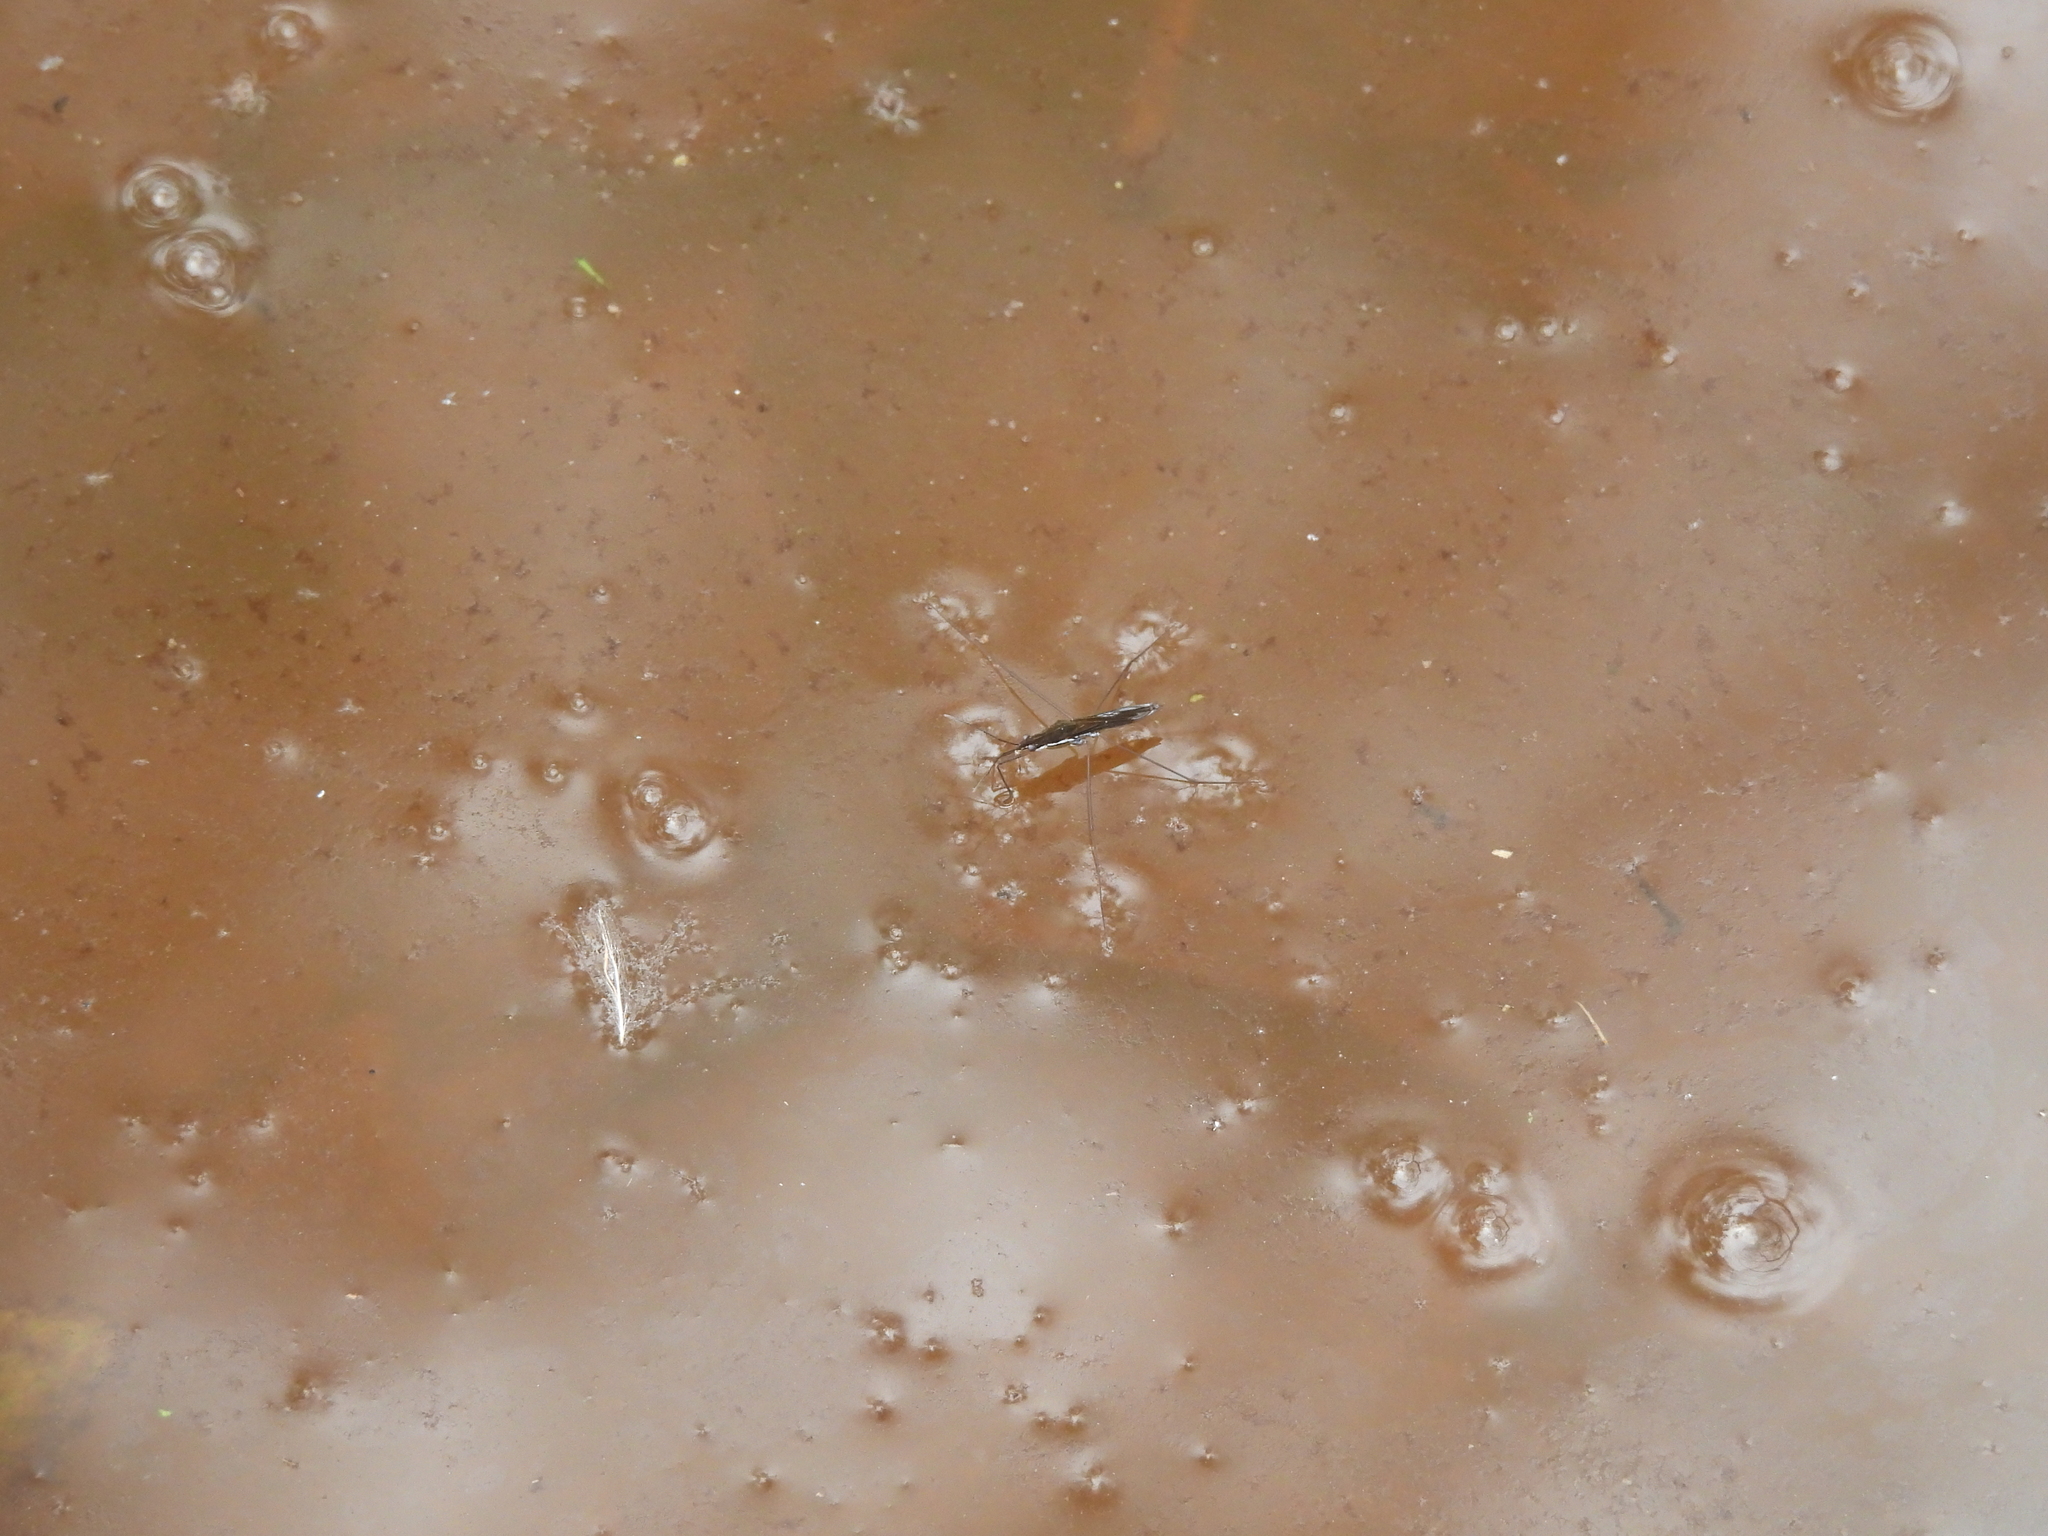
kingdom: Animalia
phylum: Arthropoda
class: Insecta
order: Hemiptera
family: Gerridae
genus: Limnoporus
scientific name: Limnoporus canaliculatus
